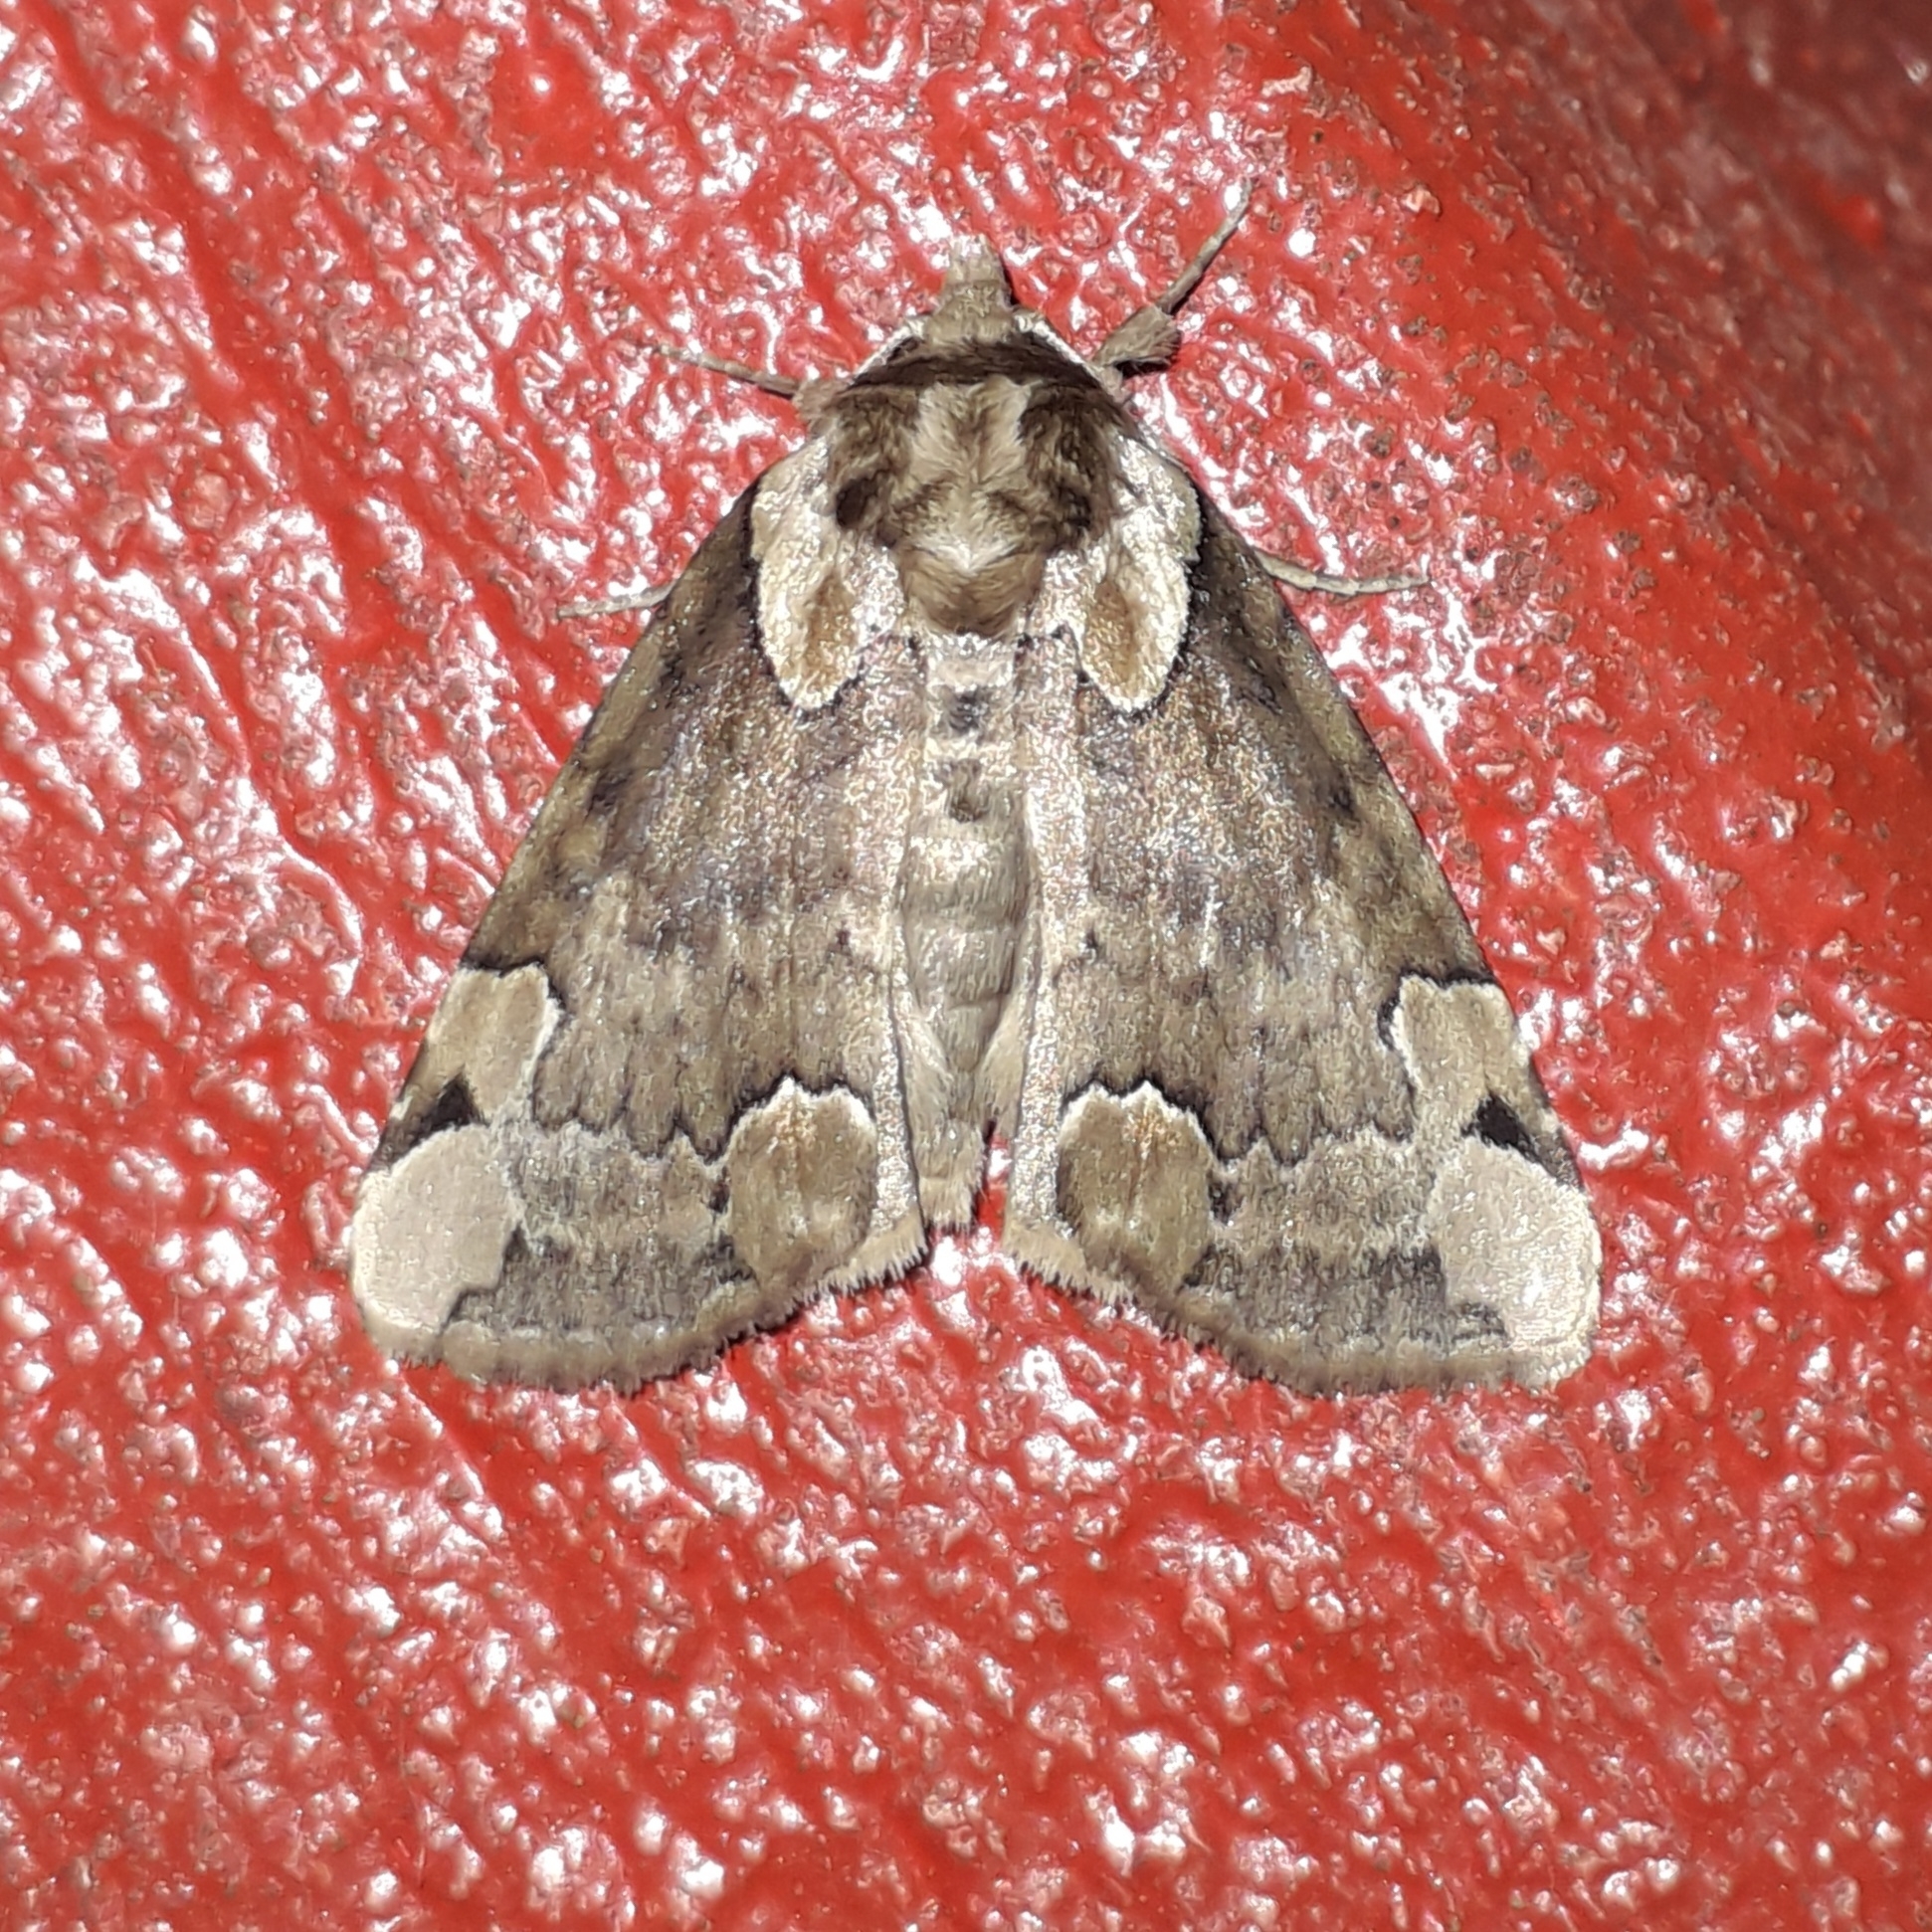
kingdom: Animalia
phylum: Arthropoda
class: Insecta
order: Lepidoptera
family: Drepanidae
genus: Thyatira
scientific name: Thyatira hedemanni
